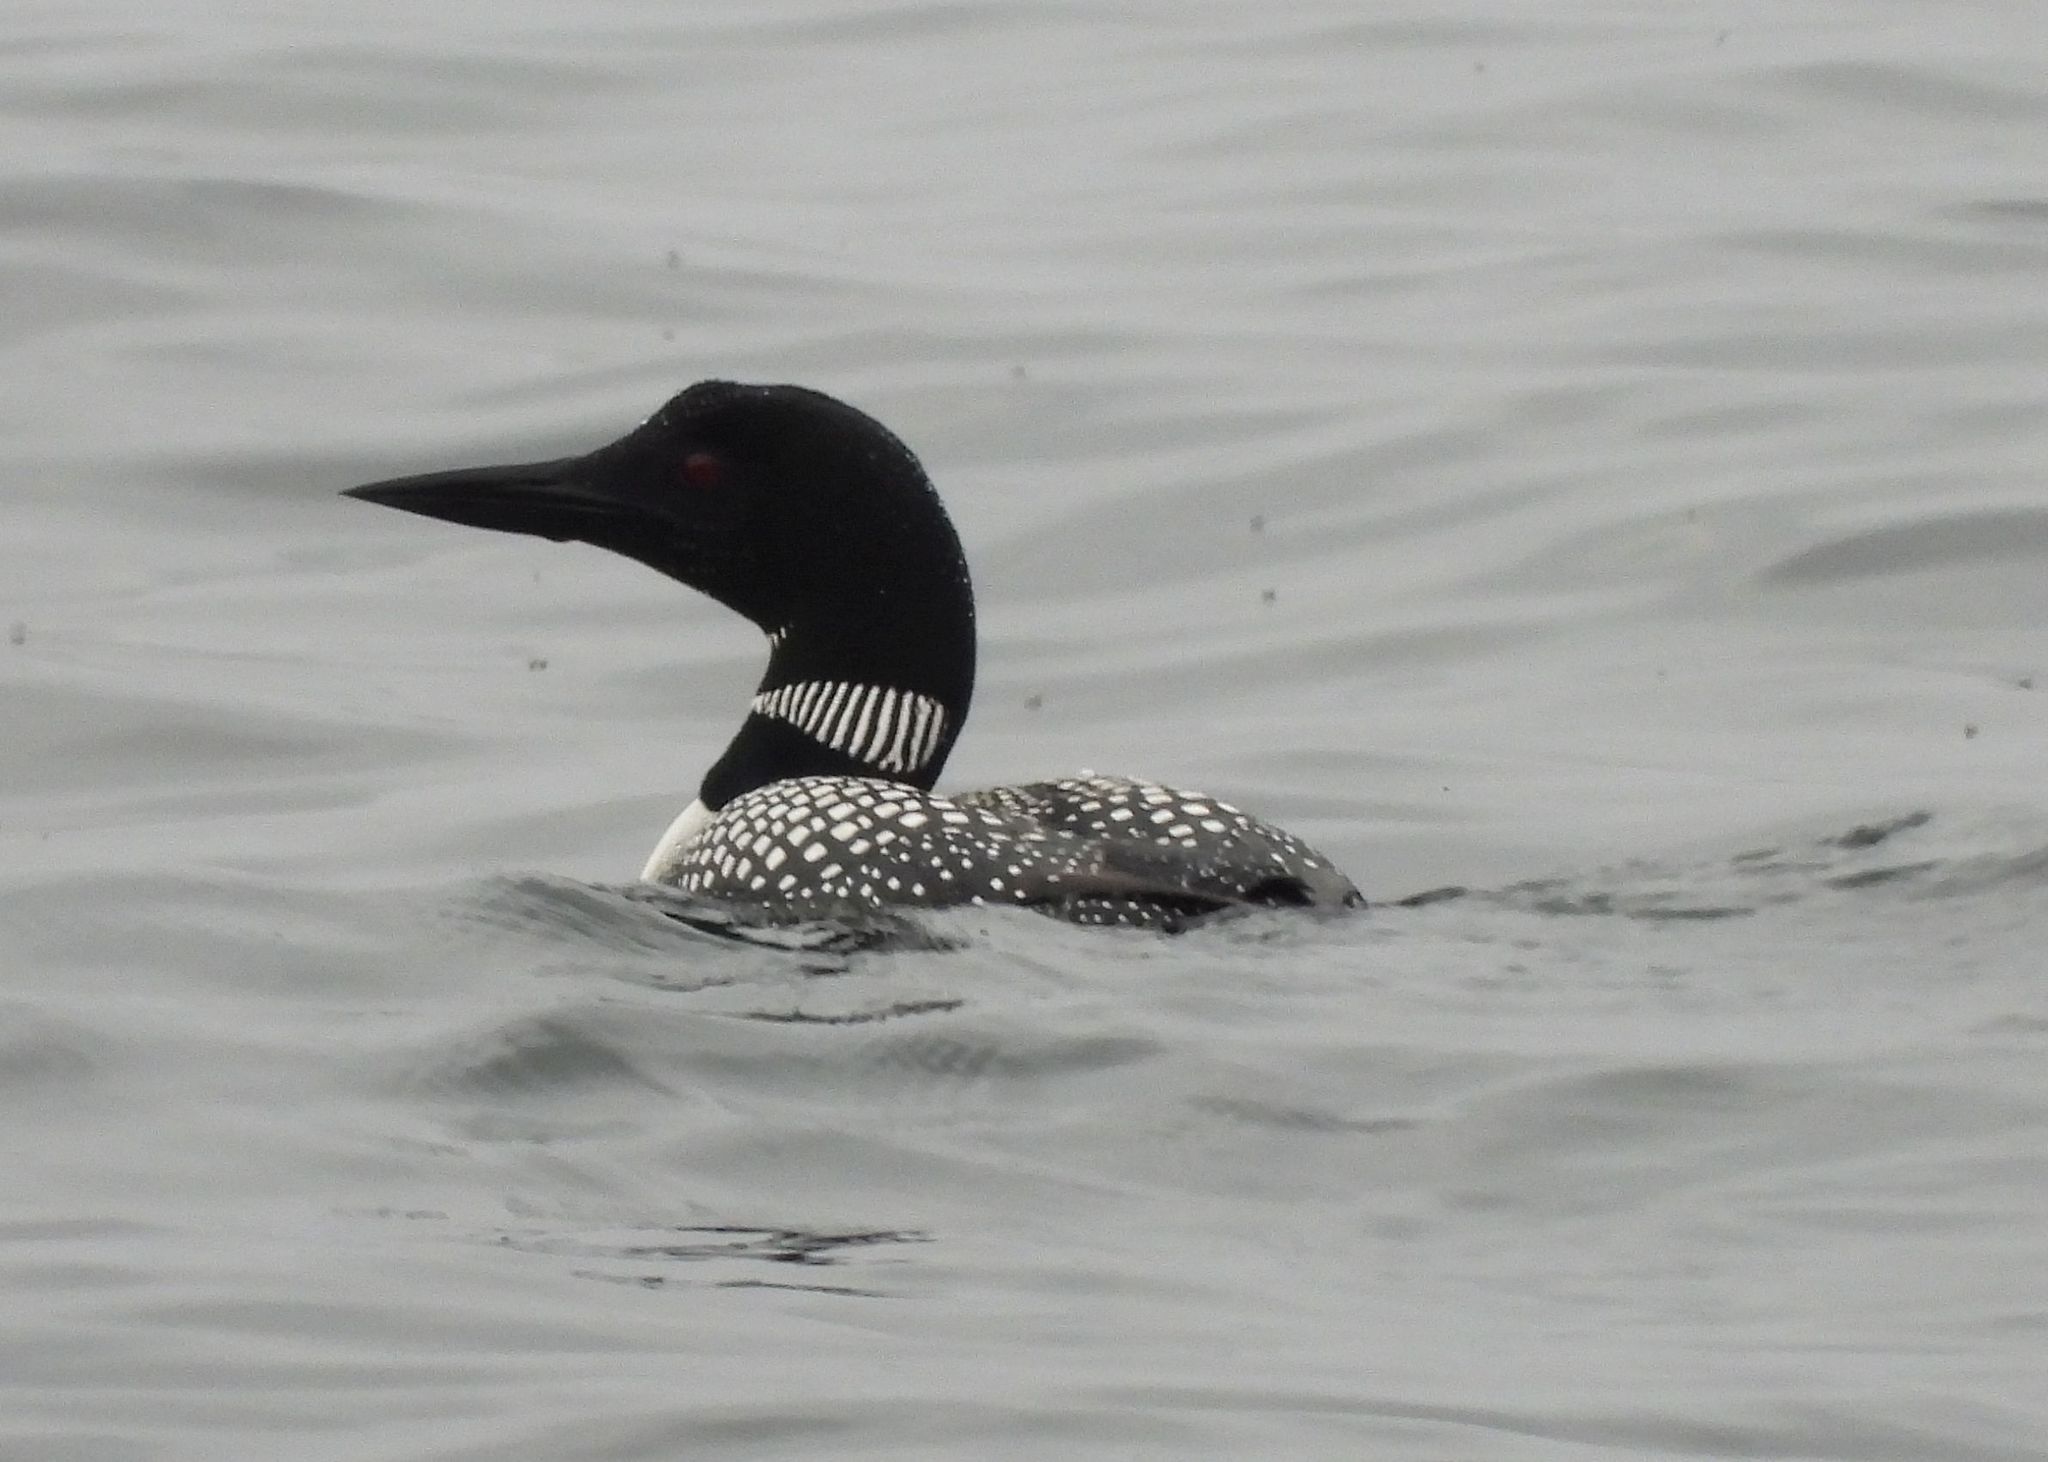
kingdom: Animalia
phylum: Chordata
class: Aves
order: Gaviiformes
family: Gaviidae
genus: Gavia
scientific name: Gavia immer
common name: Common loon
